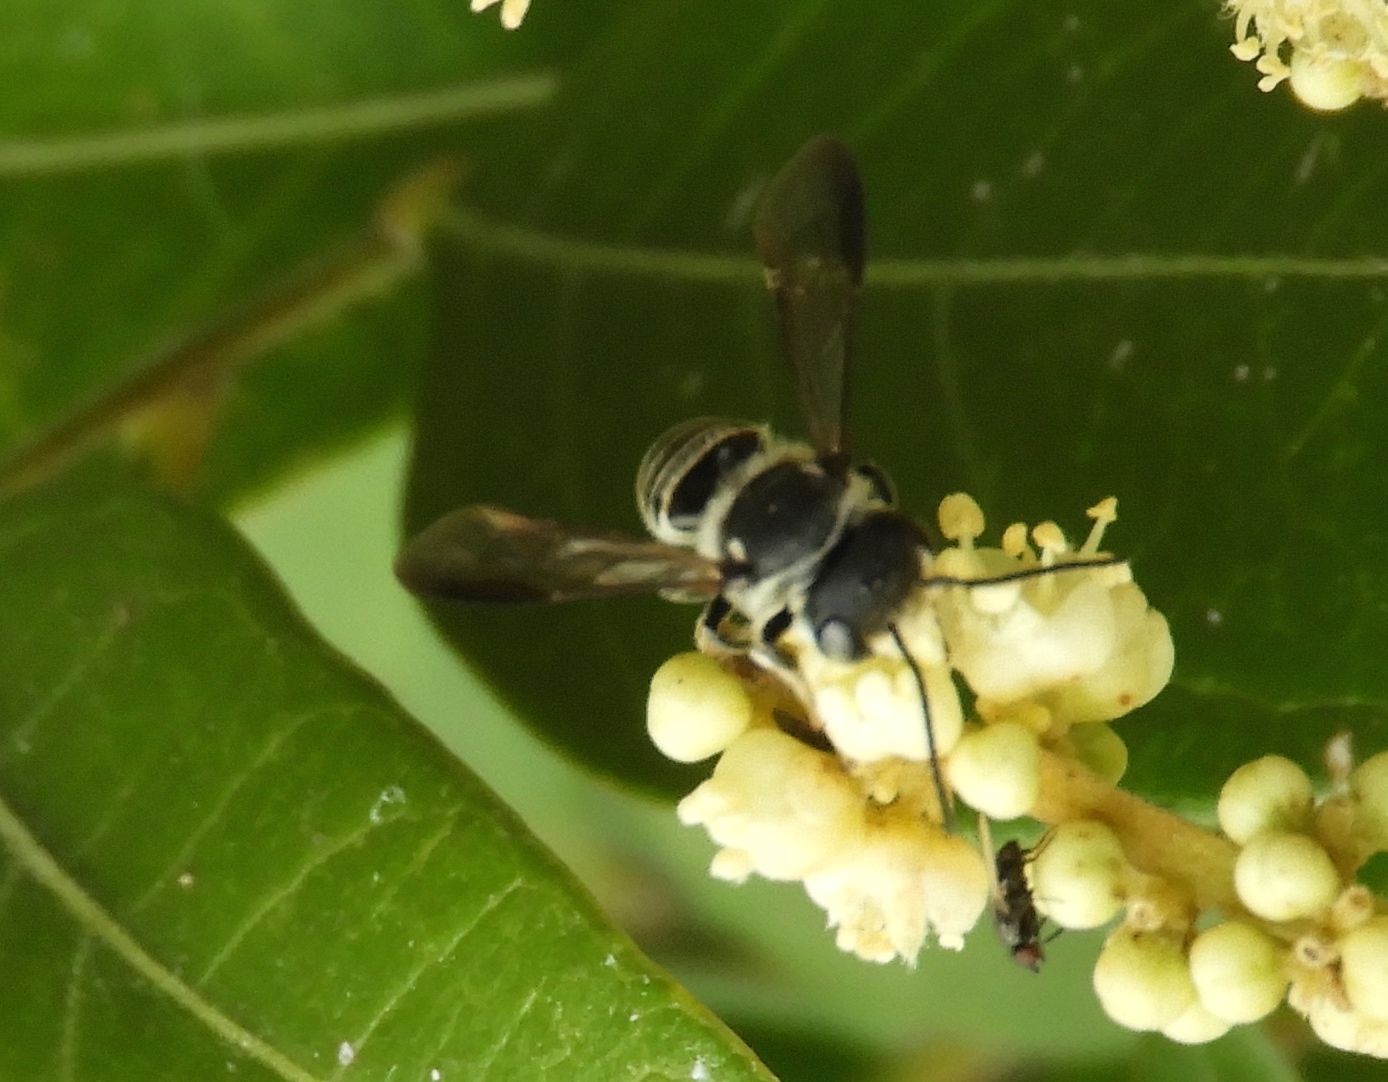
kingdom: Animalia
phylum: Arthropoda
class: Insecta
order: Hymenoptera
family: Megachilidae
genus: Megachile
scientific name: Megachile
